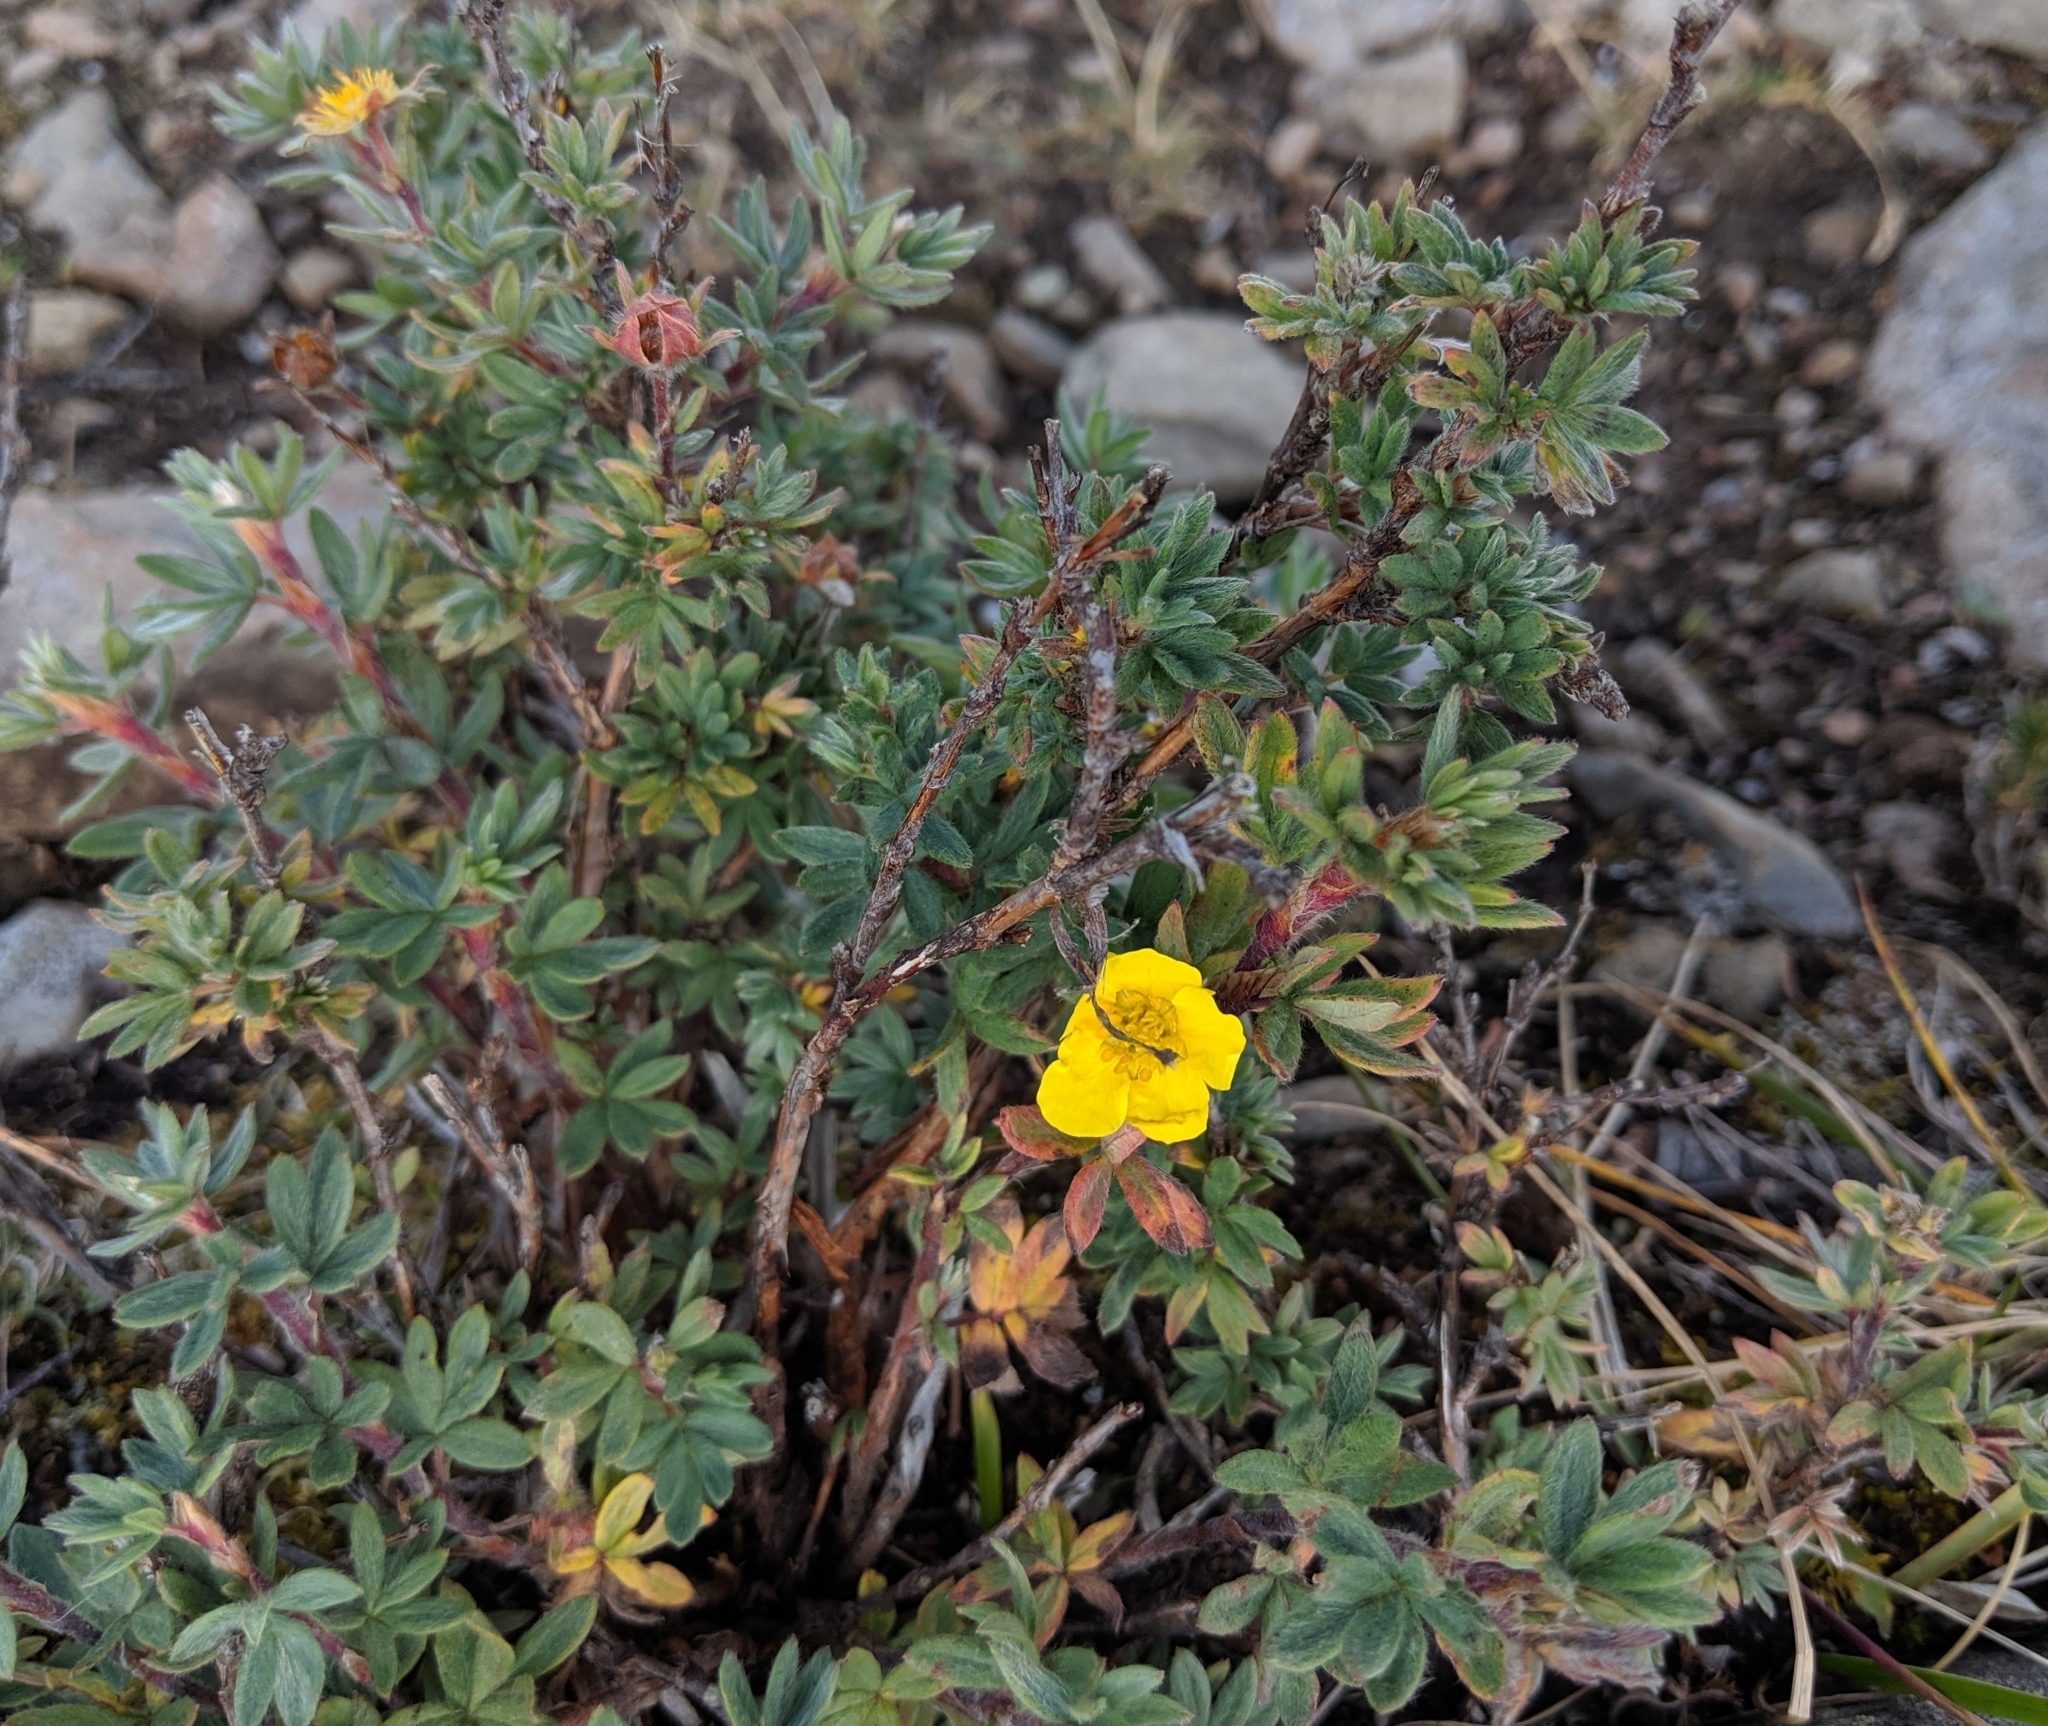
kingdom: Plantae
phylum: Tracheophyta
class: Magnoliopsida
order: Rosales
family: Rosaceae
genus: Dasiphora
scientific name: Dasiphora fruticosa
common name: Shrubby cinquefoil
